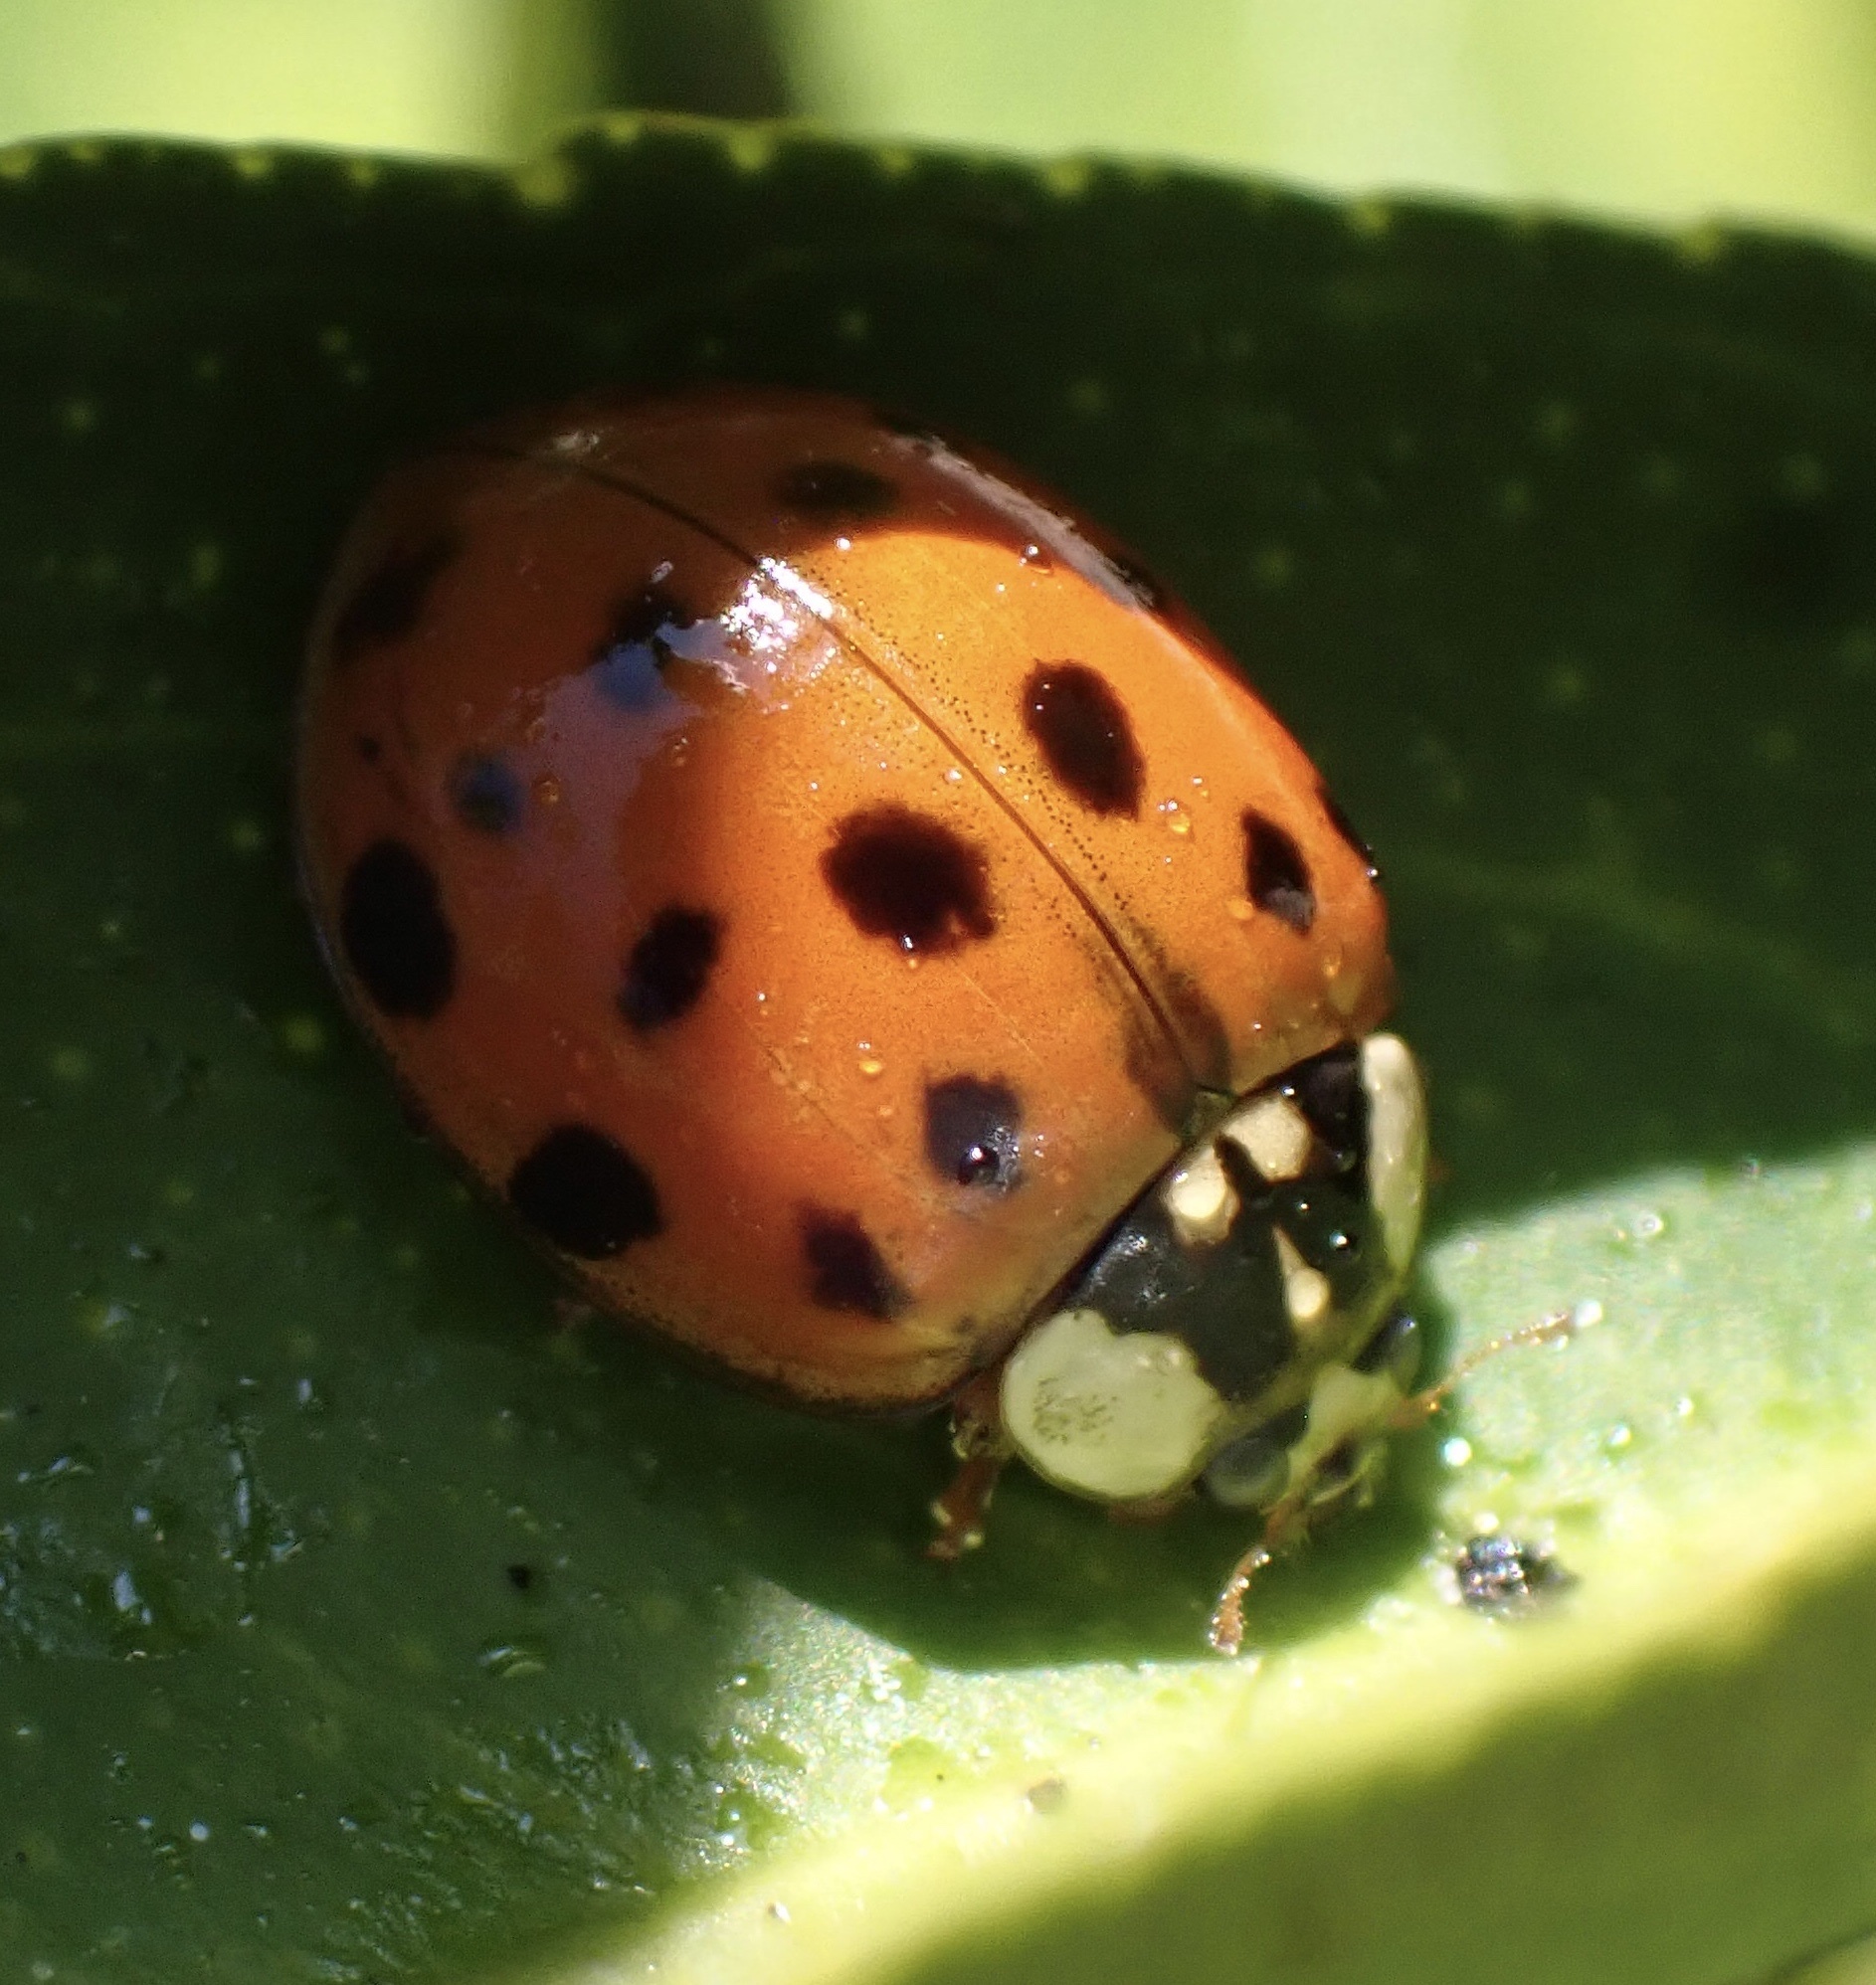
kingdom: Animalia
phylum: Arthropoda
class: Insecta
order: Coleoptera
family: Coccinellidae
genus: Harmonia
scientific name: Harmonia axyridis
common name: Harlequin ladybird
